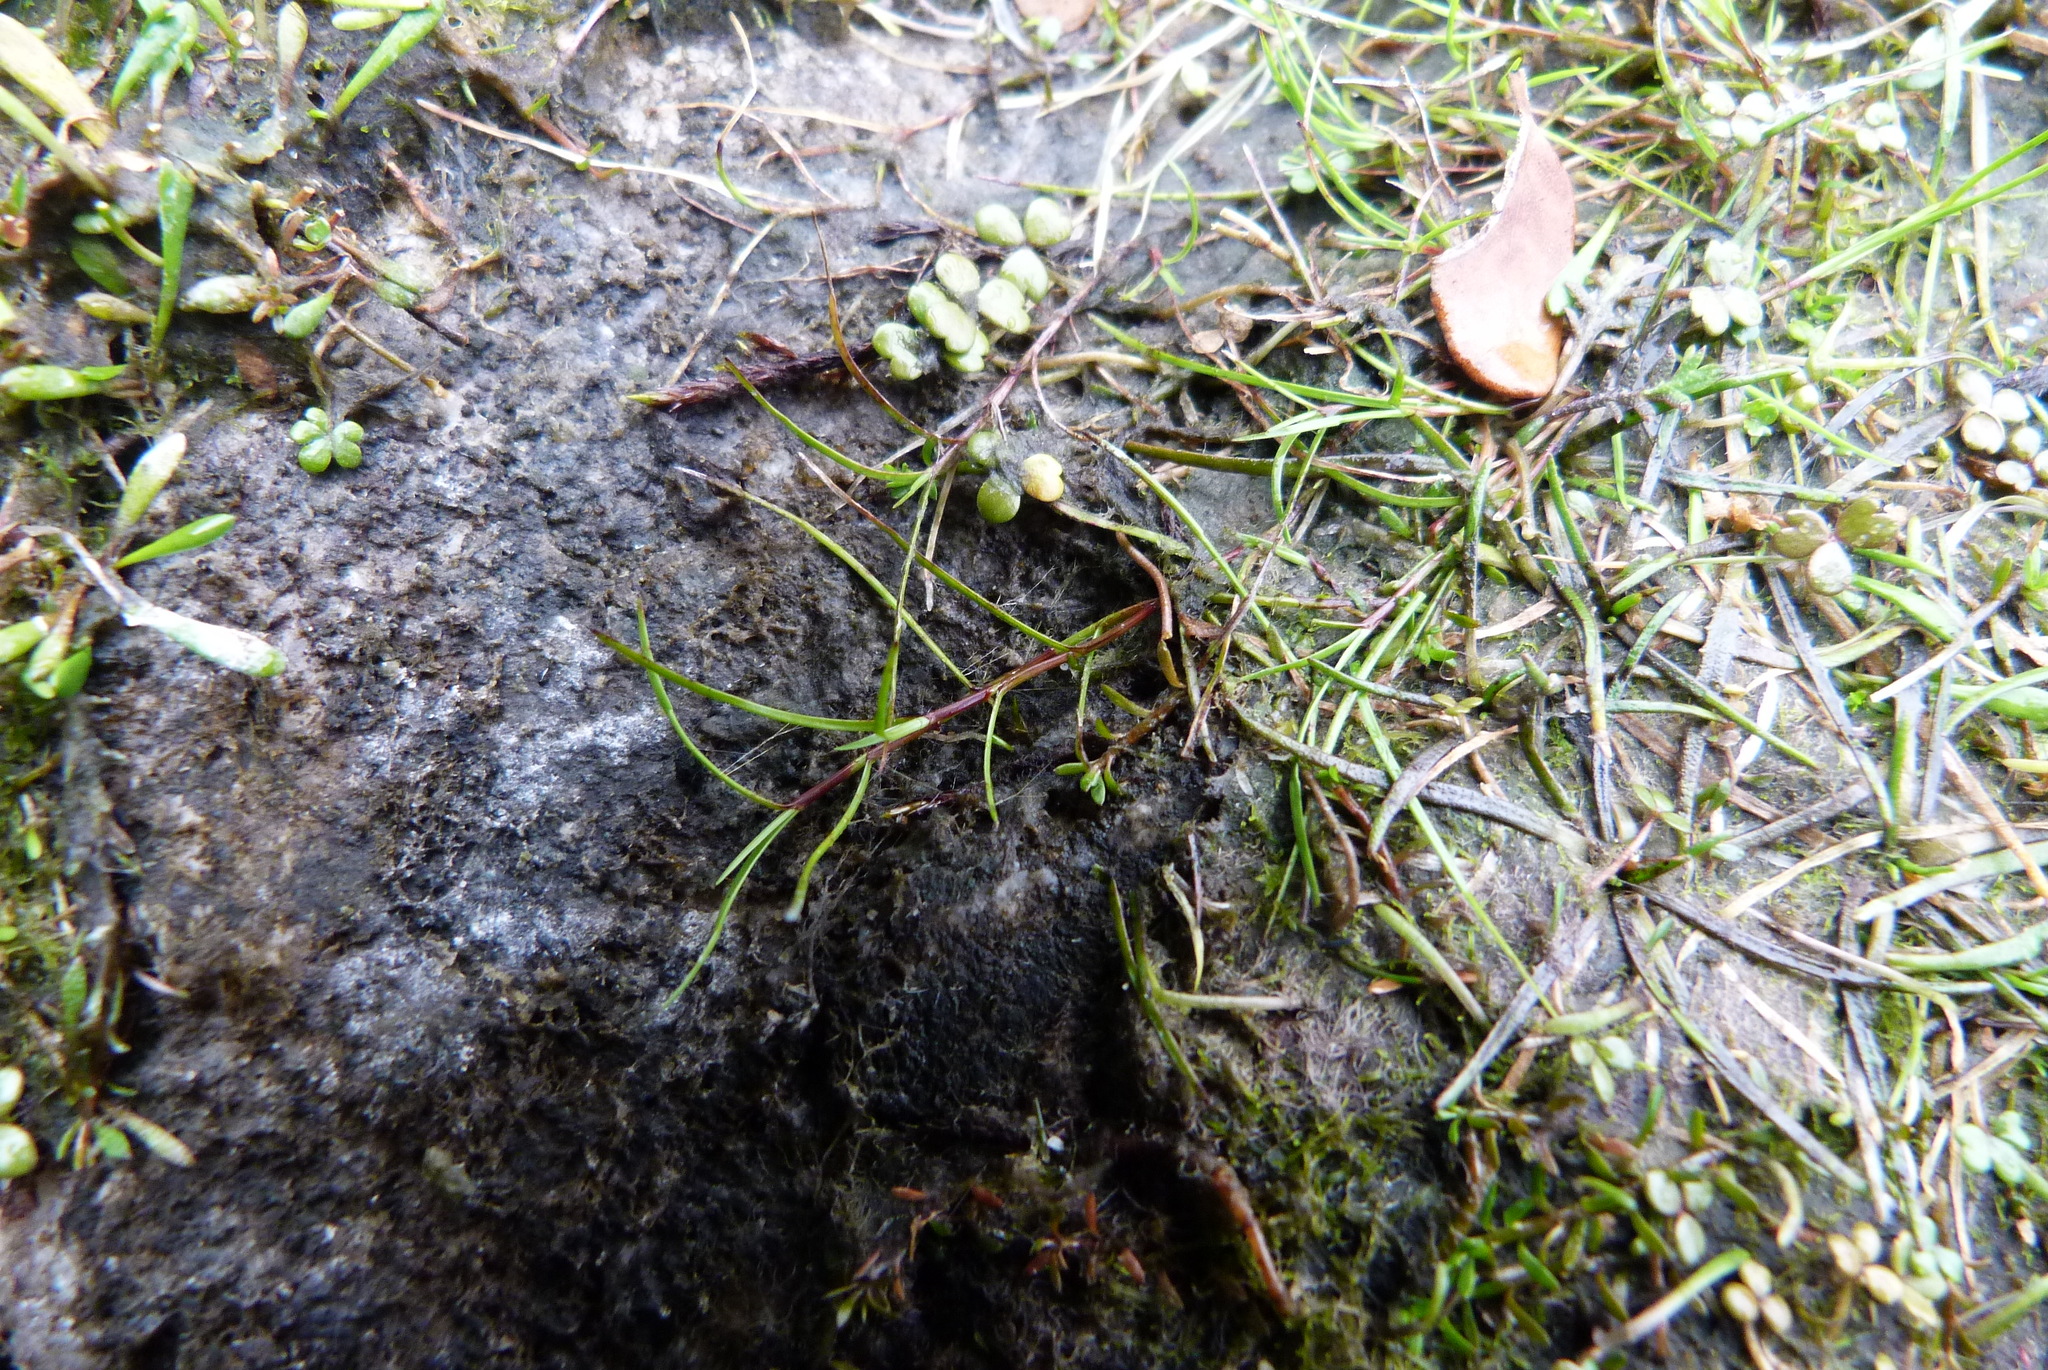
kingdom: Plantae
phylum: Tracheophyta
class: Liliopsida
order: Poales
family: Cyperaceae
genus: Schoenus
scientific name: Schoenus maschalinus
